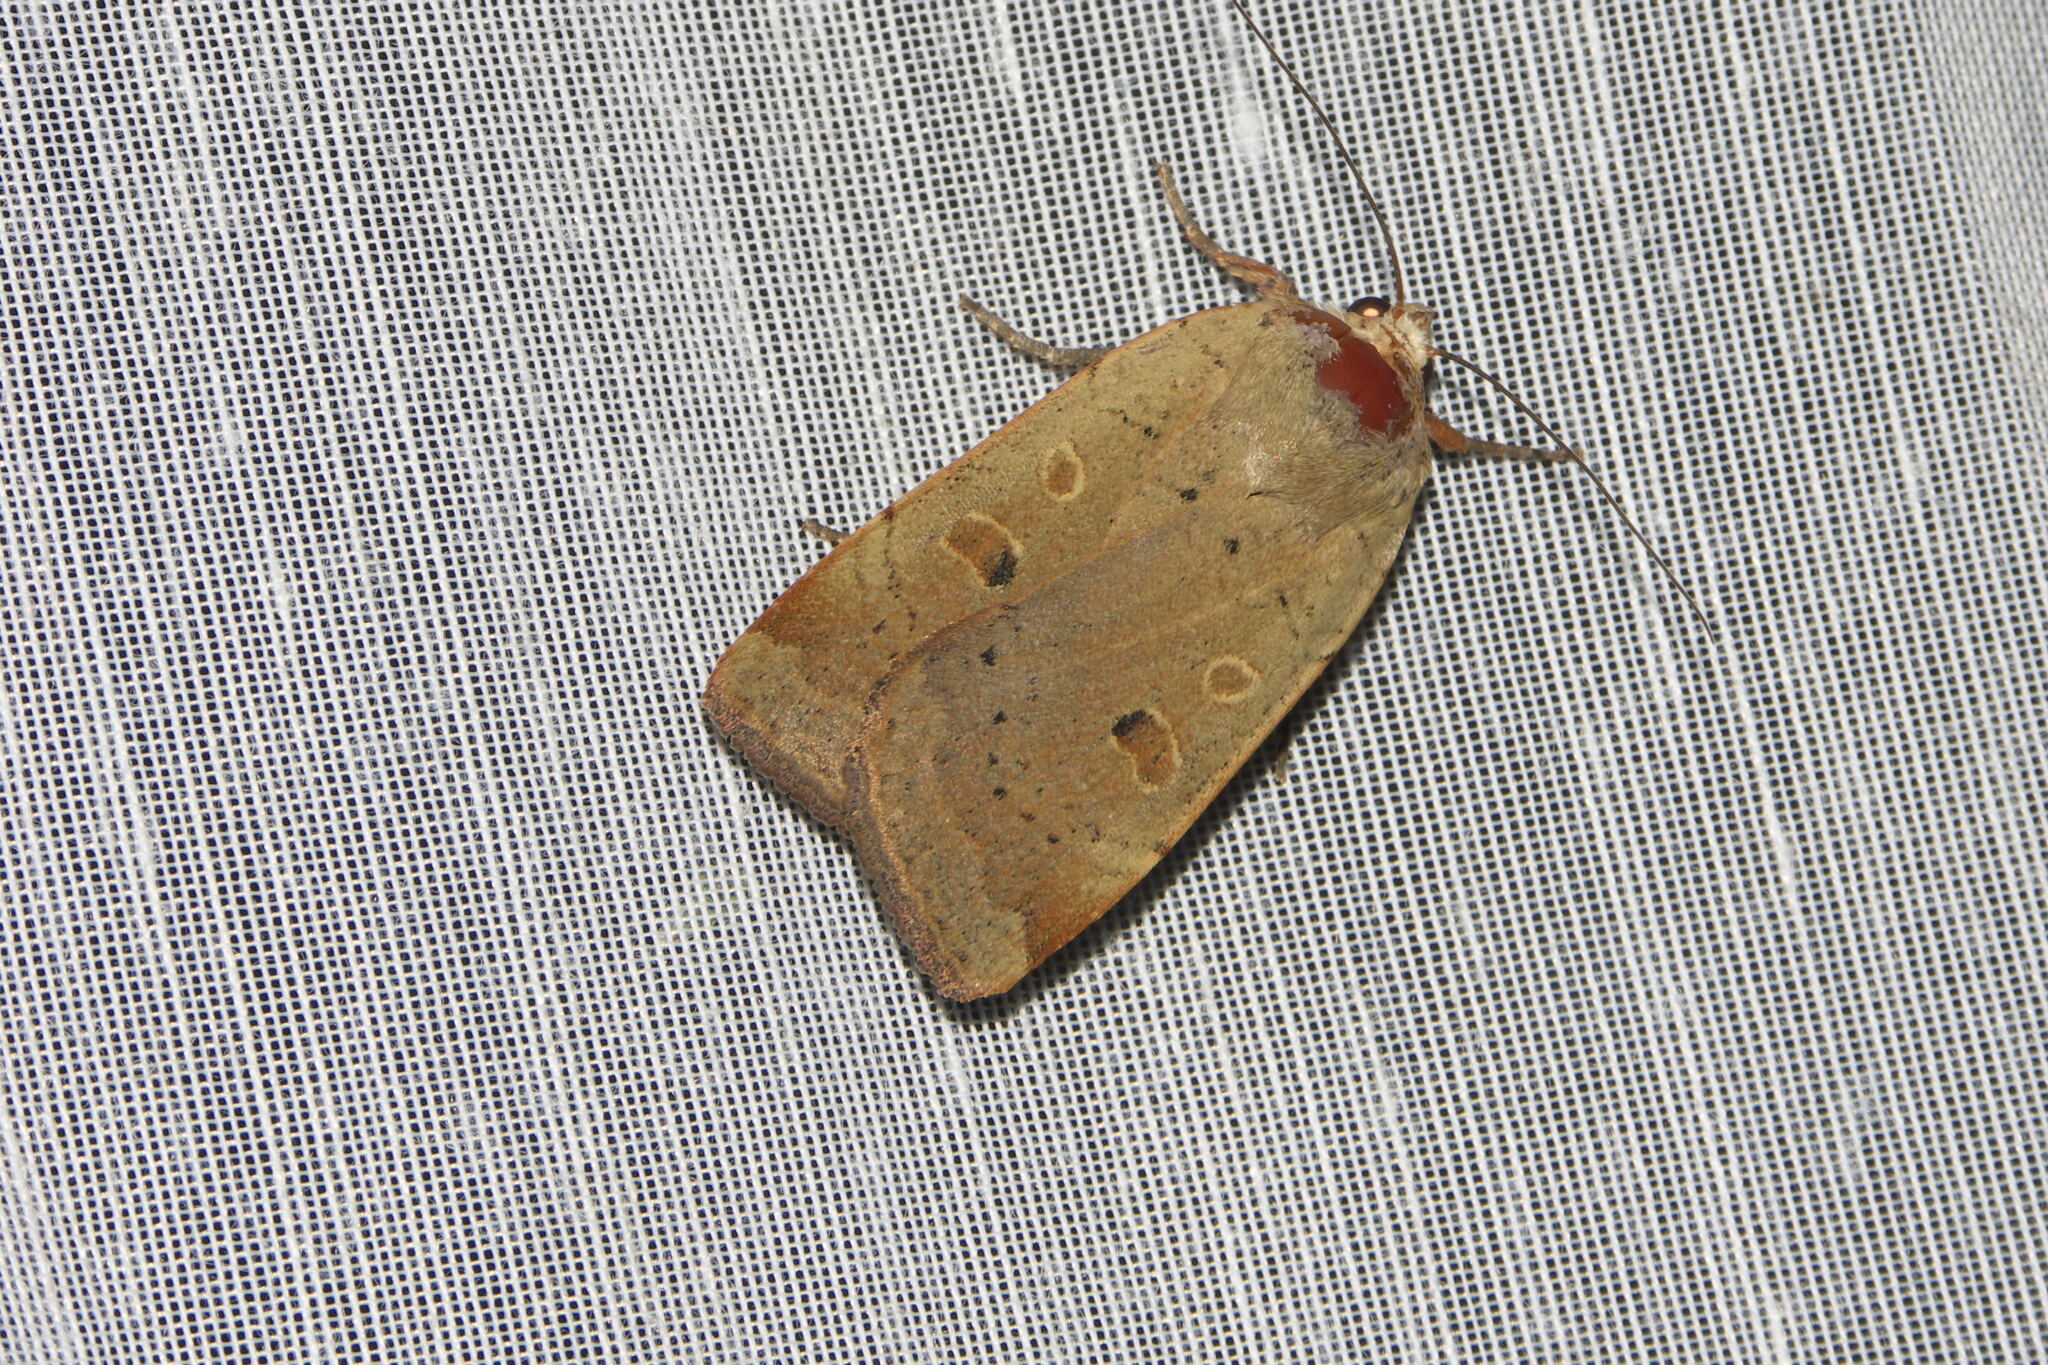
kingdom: Animalia
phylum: Arthropoda
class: Insecta
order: Lepidoptera
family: Noctuidae
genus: Noctua
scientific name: Noctua comes
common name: Lesser yellow underwing
